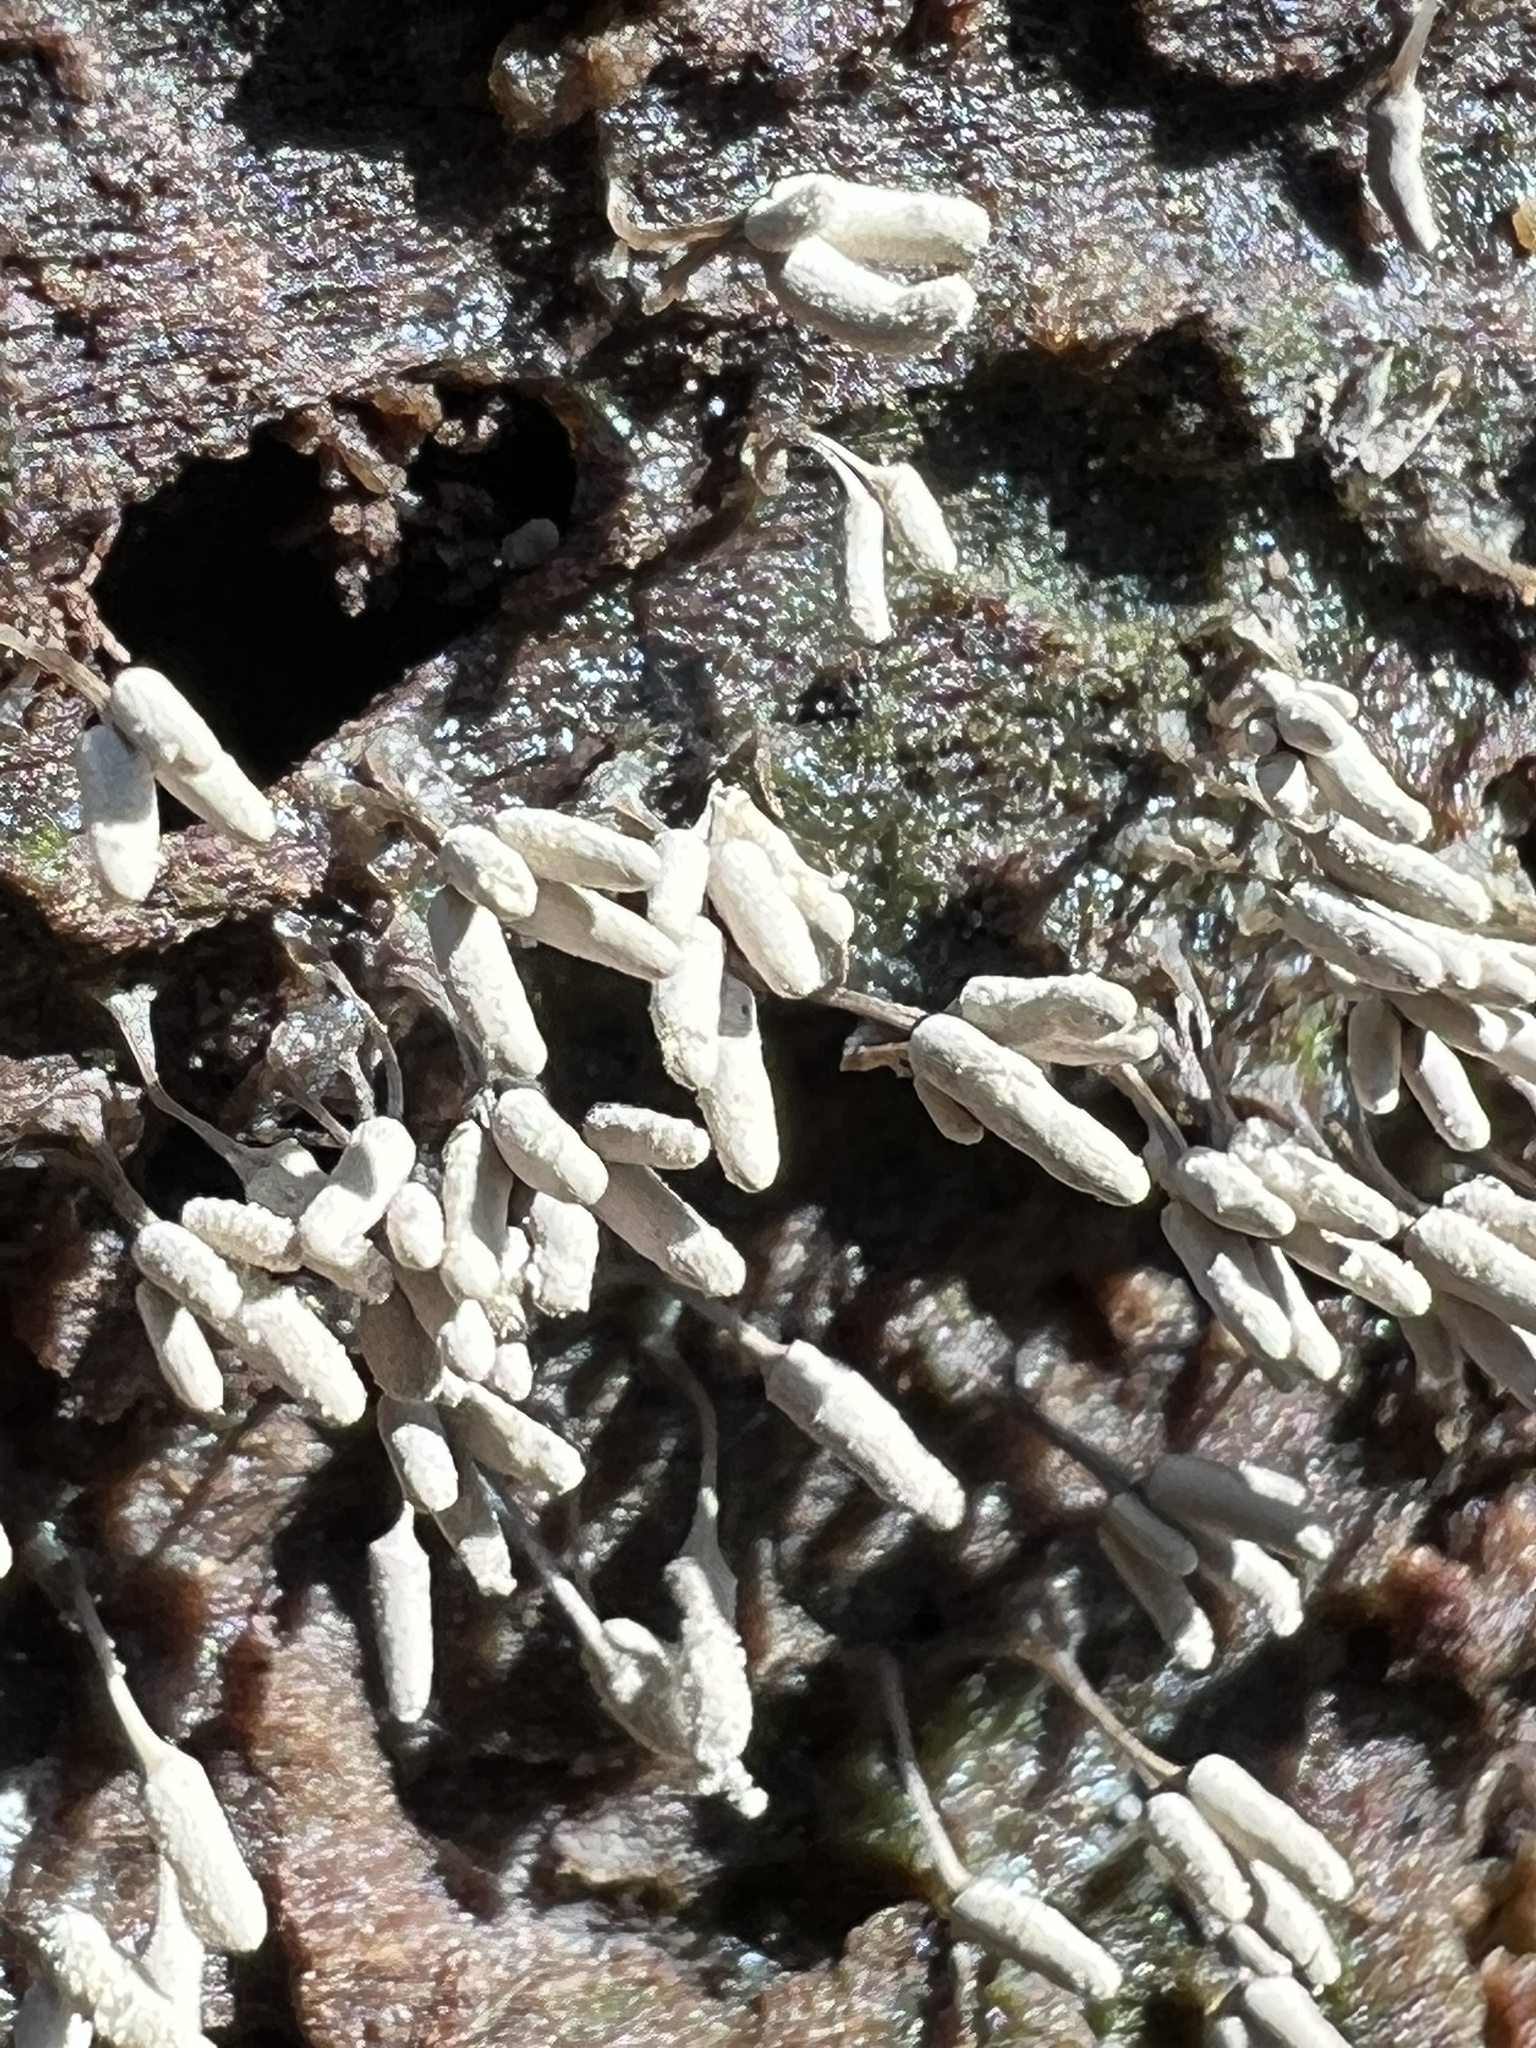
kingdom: Protozoa
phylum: Mycetozoa
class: Myxomycetes
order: Trichiales
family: Arcyriaceae
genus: Arcyria
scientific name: Arcyria cinerea
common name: White carnival candy slime mold
